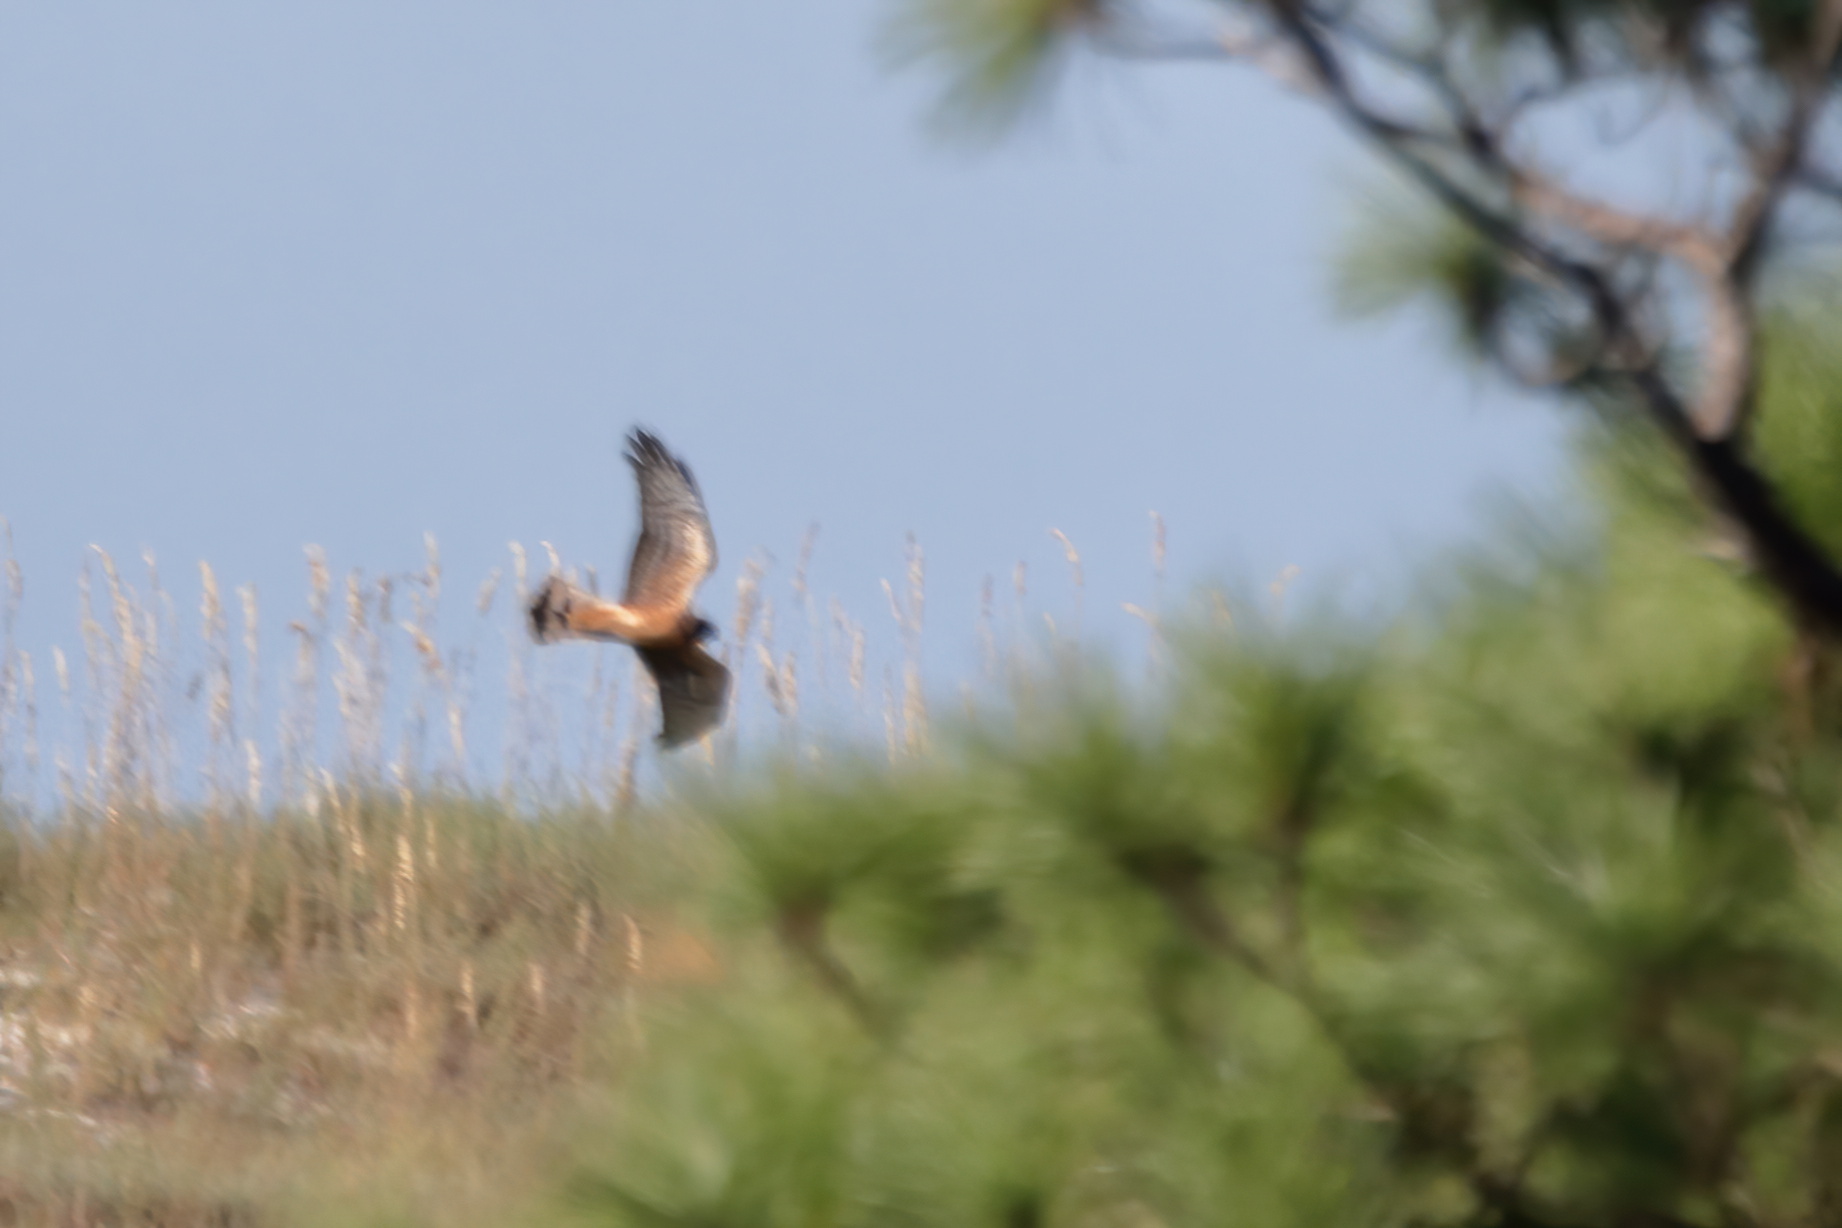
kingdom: Animalia
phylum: Chordata
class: Aves
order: Accipitriformes
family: Accipitridae
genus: Circus
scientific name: Circus cyaneus
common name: Hen harrier
